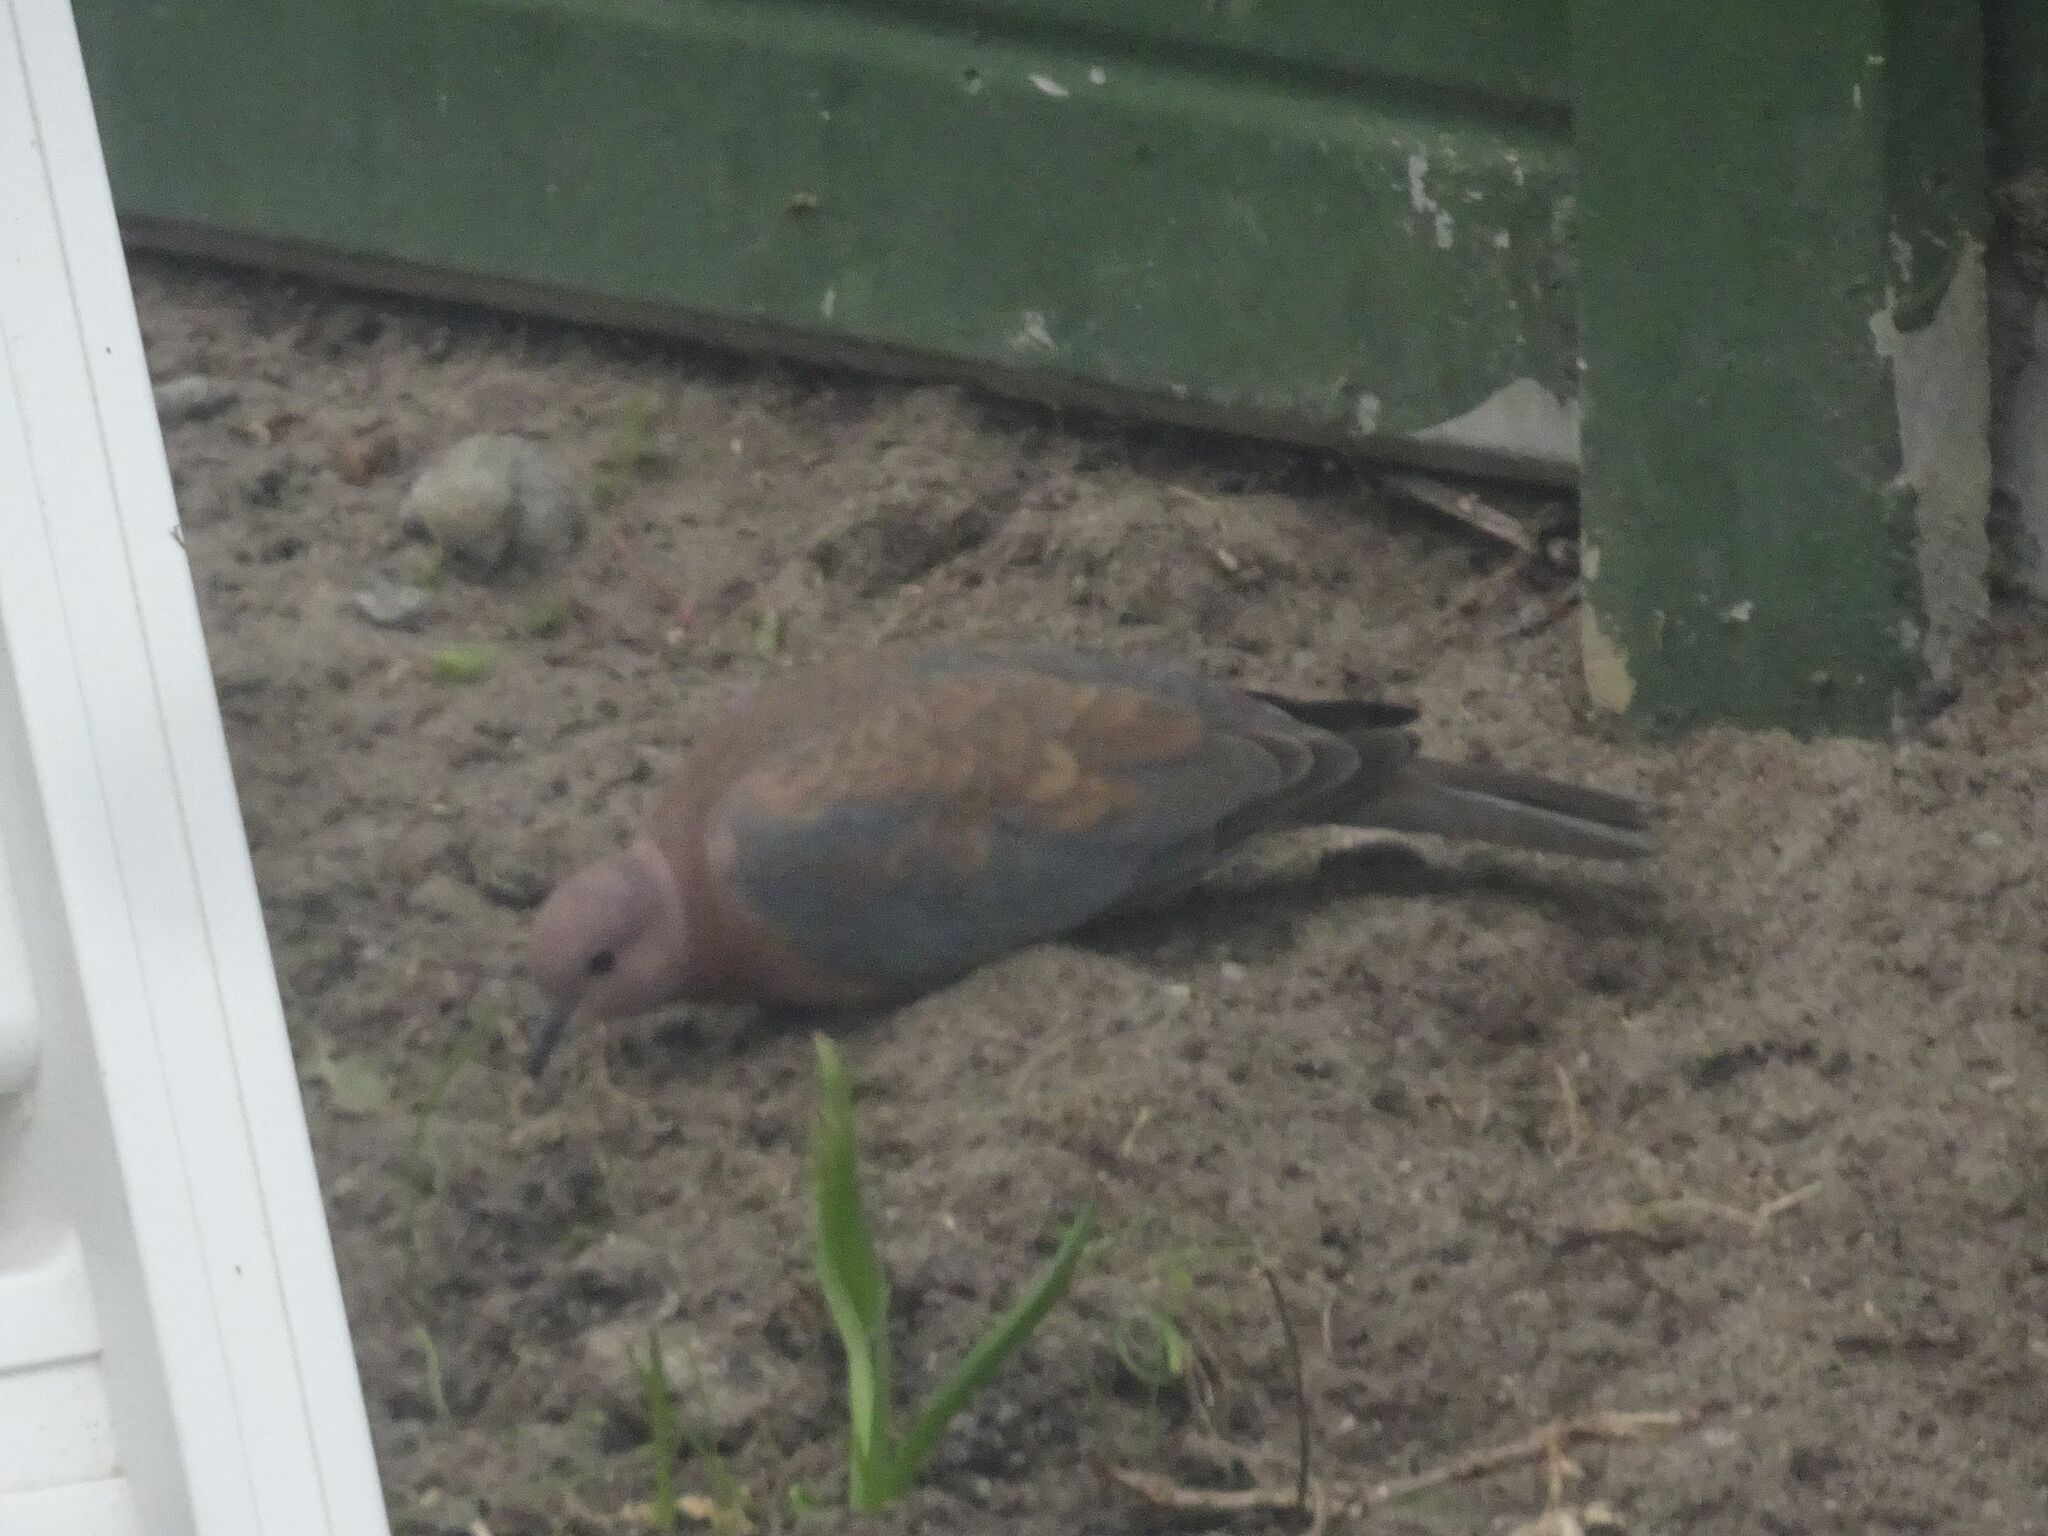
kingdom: Animalia
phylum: Chordata
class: Aves
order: Columbiformes
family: Columbidae
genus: Spilopelia
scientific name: Spilopelia senegalensis
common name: Laughing dove
